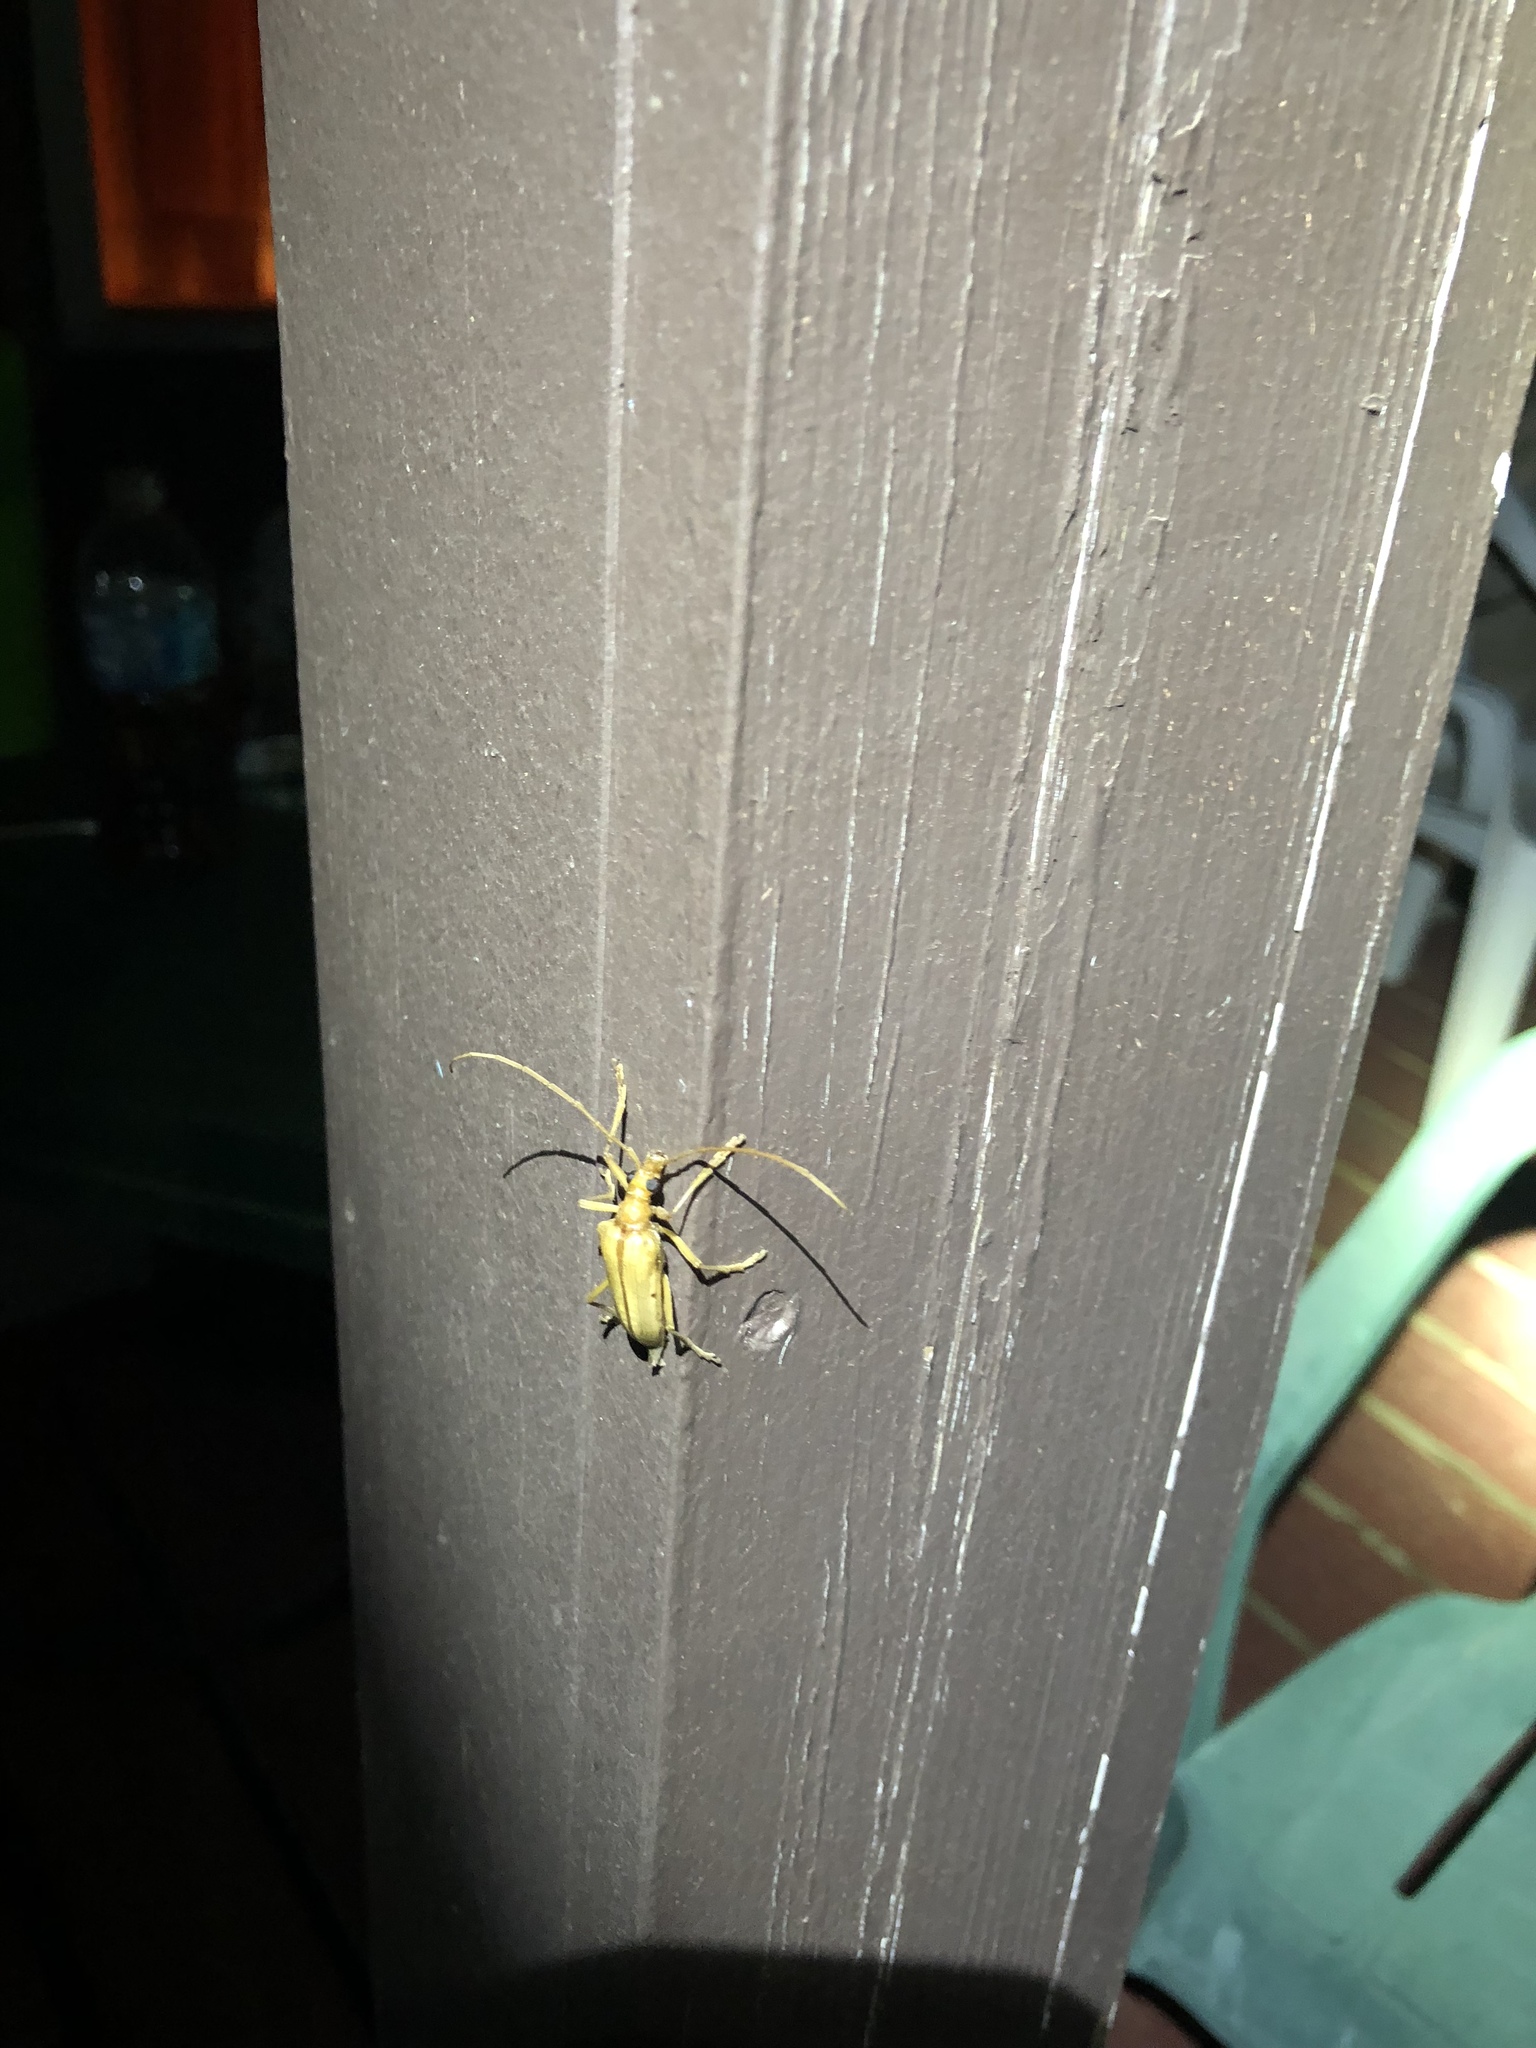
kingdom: Animalia
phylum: Arthropoda
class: Insecta
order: Coleoptera
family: Cerambycidae
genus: Centrodera
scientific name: Centrodera spurca
